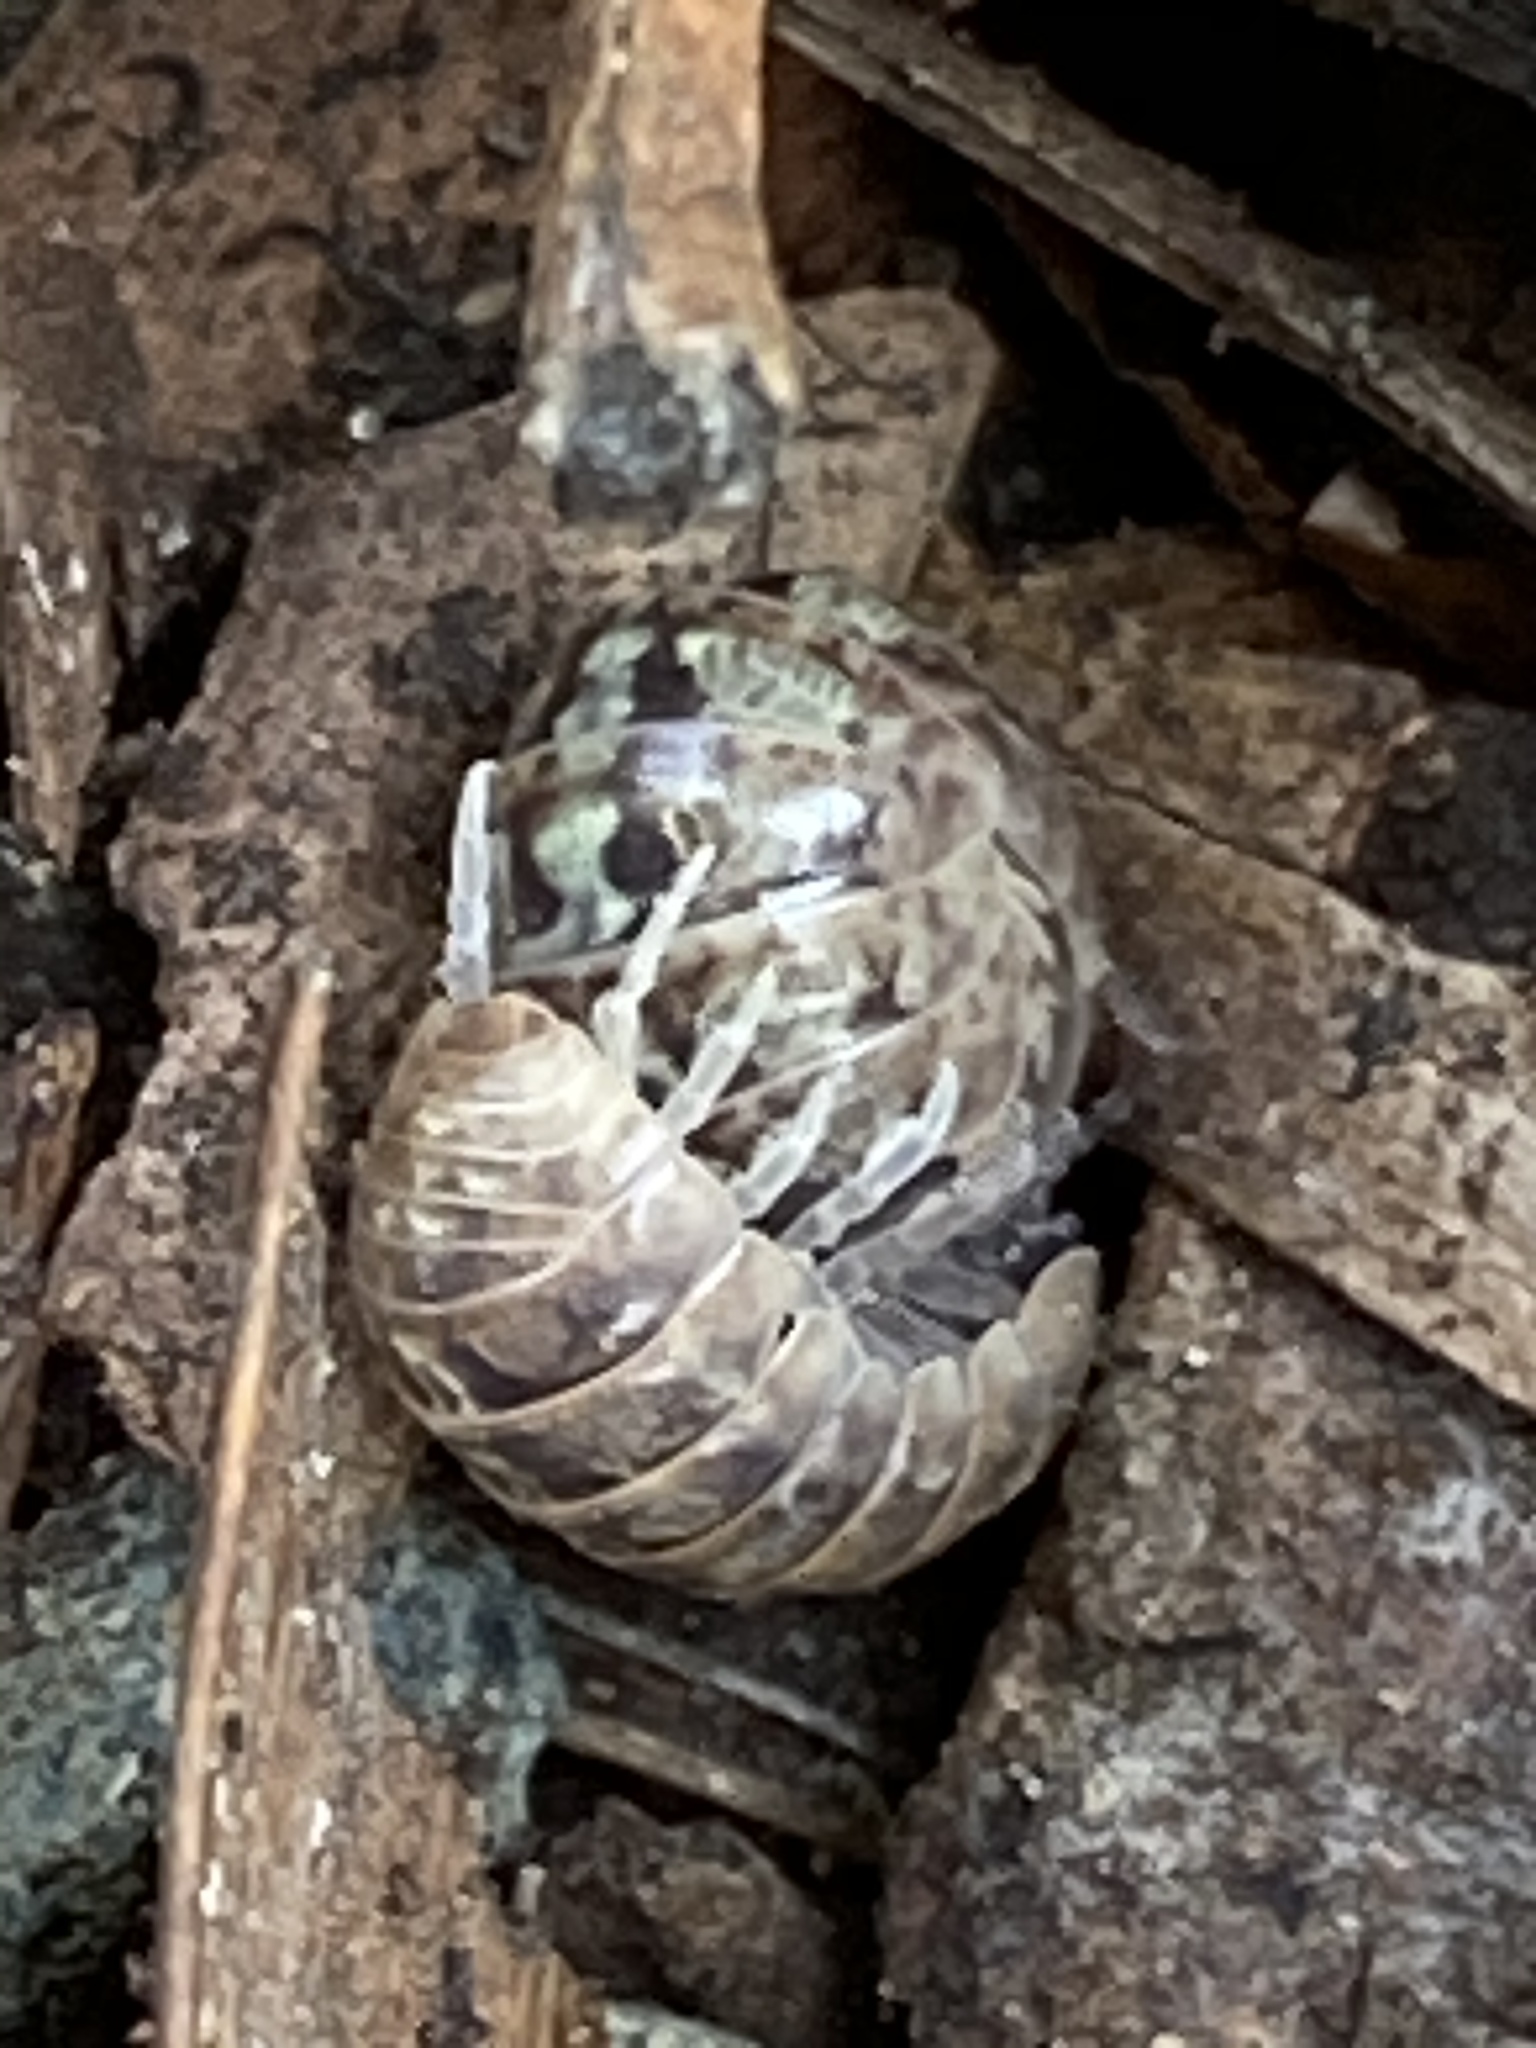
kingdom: Animalia
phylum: Arthropoda
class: Malacostraca
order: Isopoda
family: Armadillidiidae
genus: Armadillidium
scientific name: Armadillidium vulgare
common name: Common pill woodlouse
